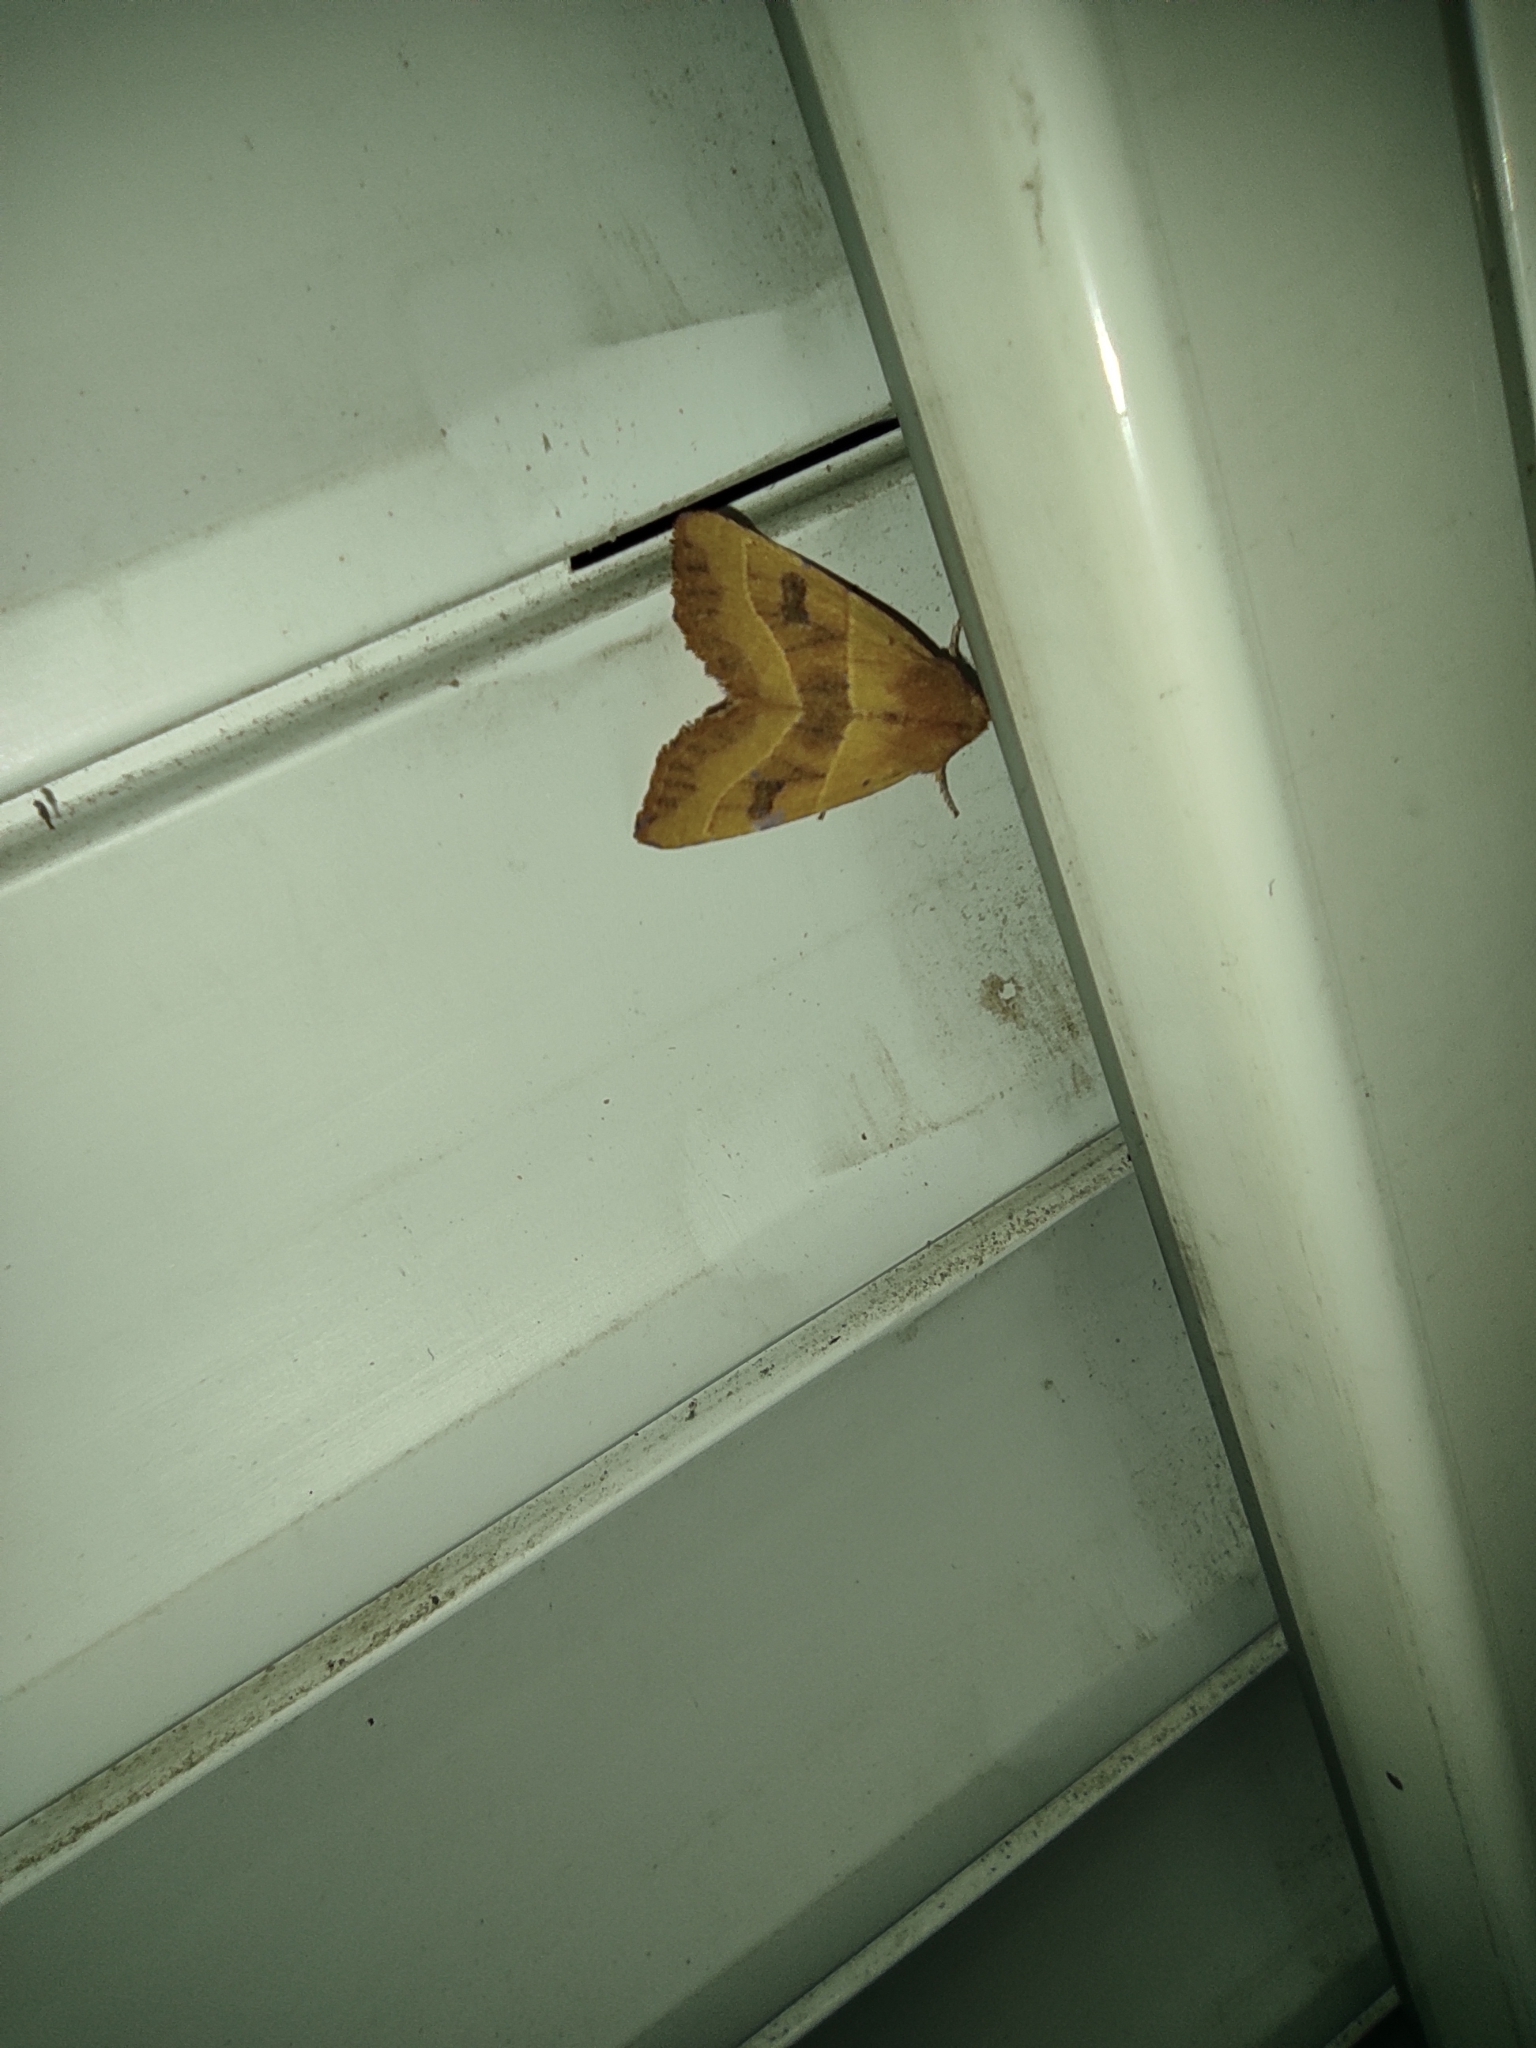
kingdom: Animalia
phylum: Arthropoda
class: Insecta
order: Lepidoptera
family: Noctuidae
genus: Atethmia
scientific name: Atethmia centrago
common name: Centre-barred sallow
